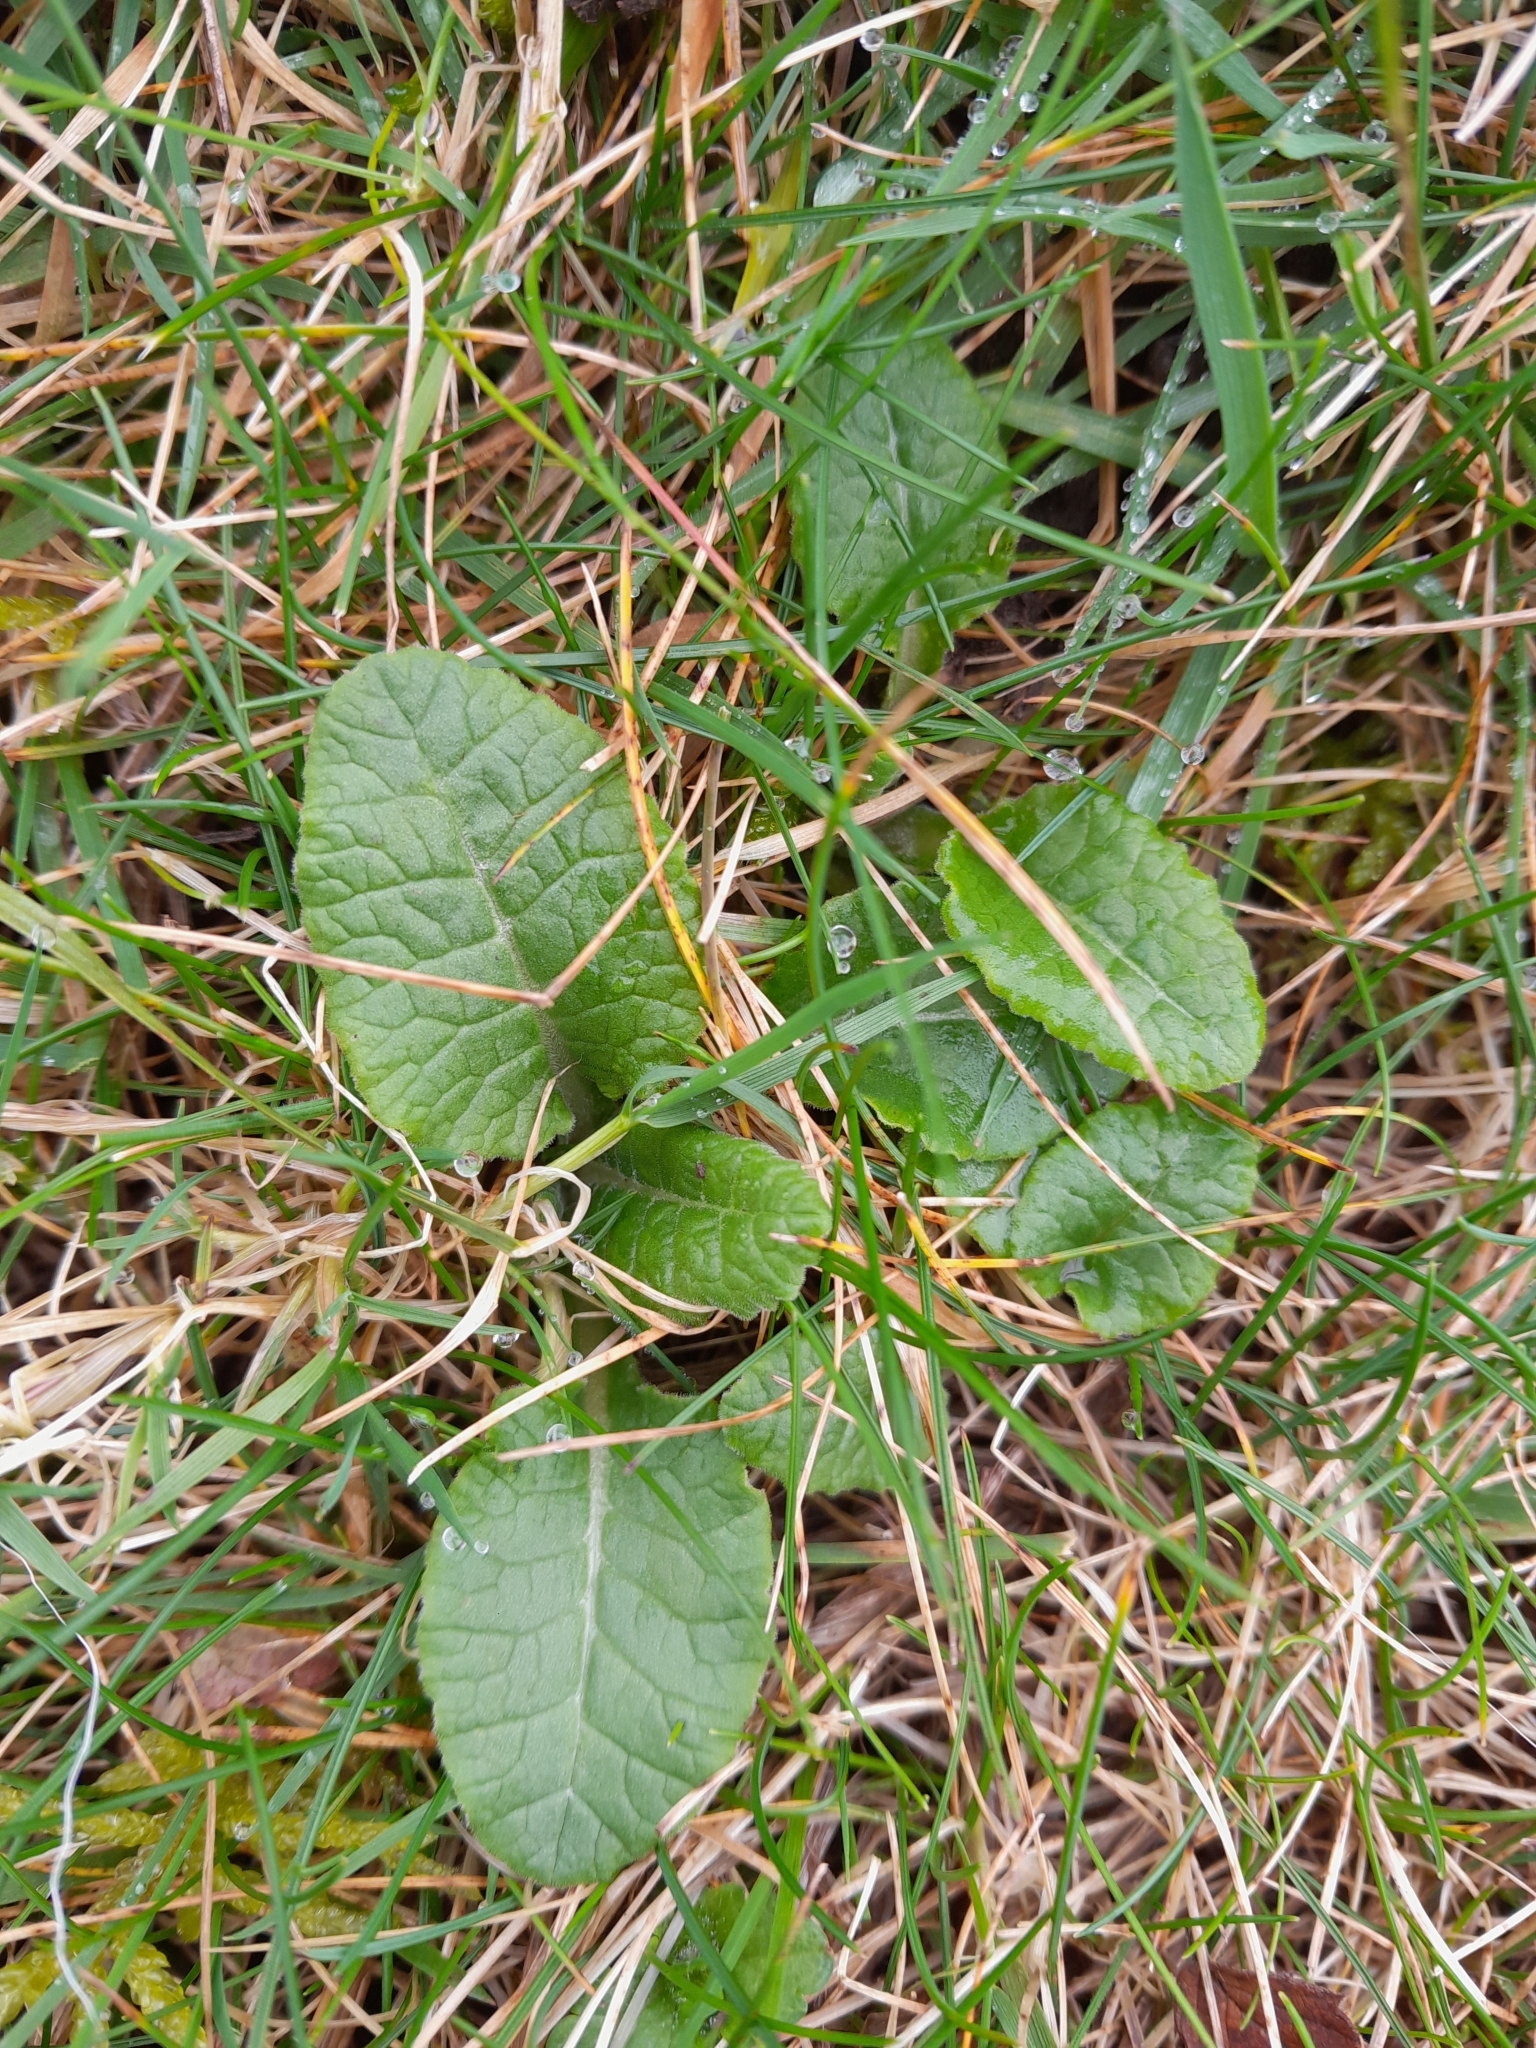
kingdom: Plantae
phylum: Tracheophyta
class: Magnoliopsida
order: Ericales
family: Primulaceae
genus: Primula
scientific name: Primula veris
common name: Cowslip
